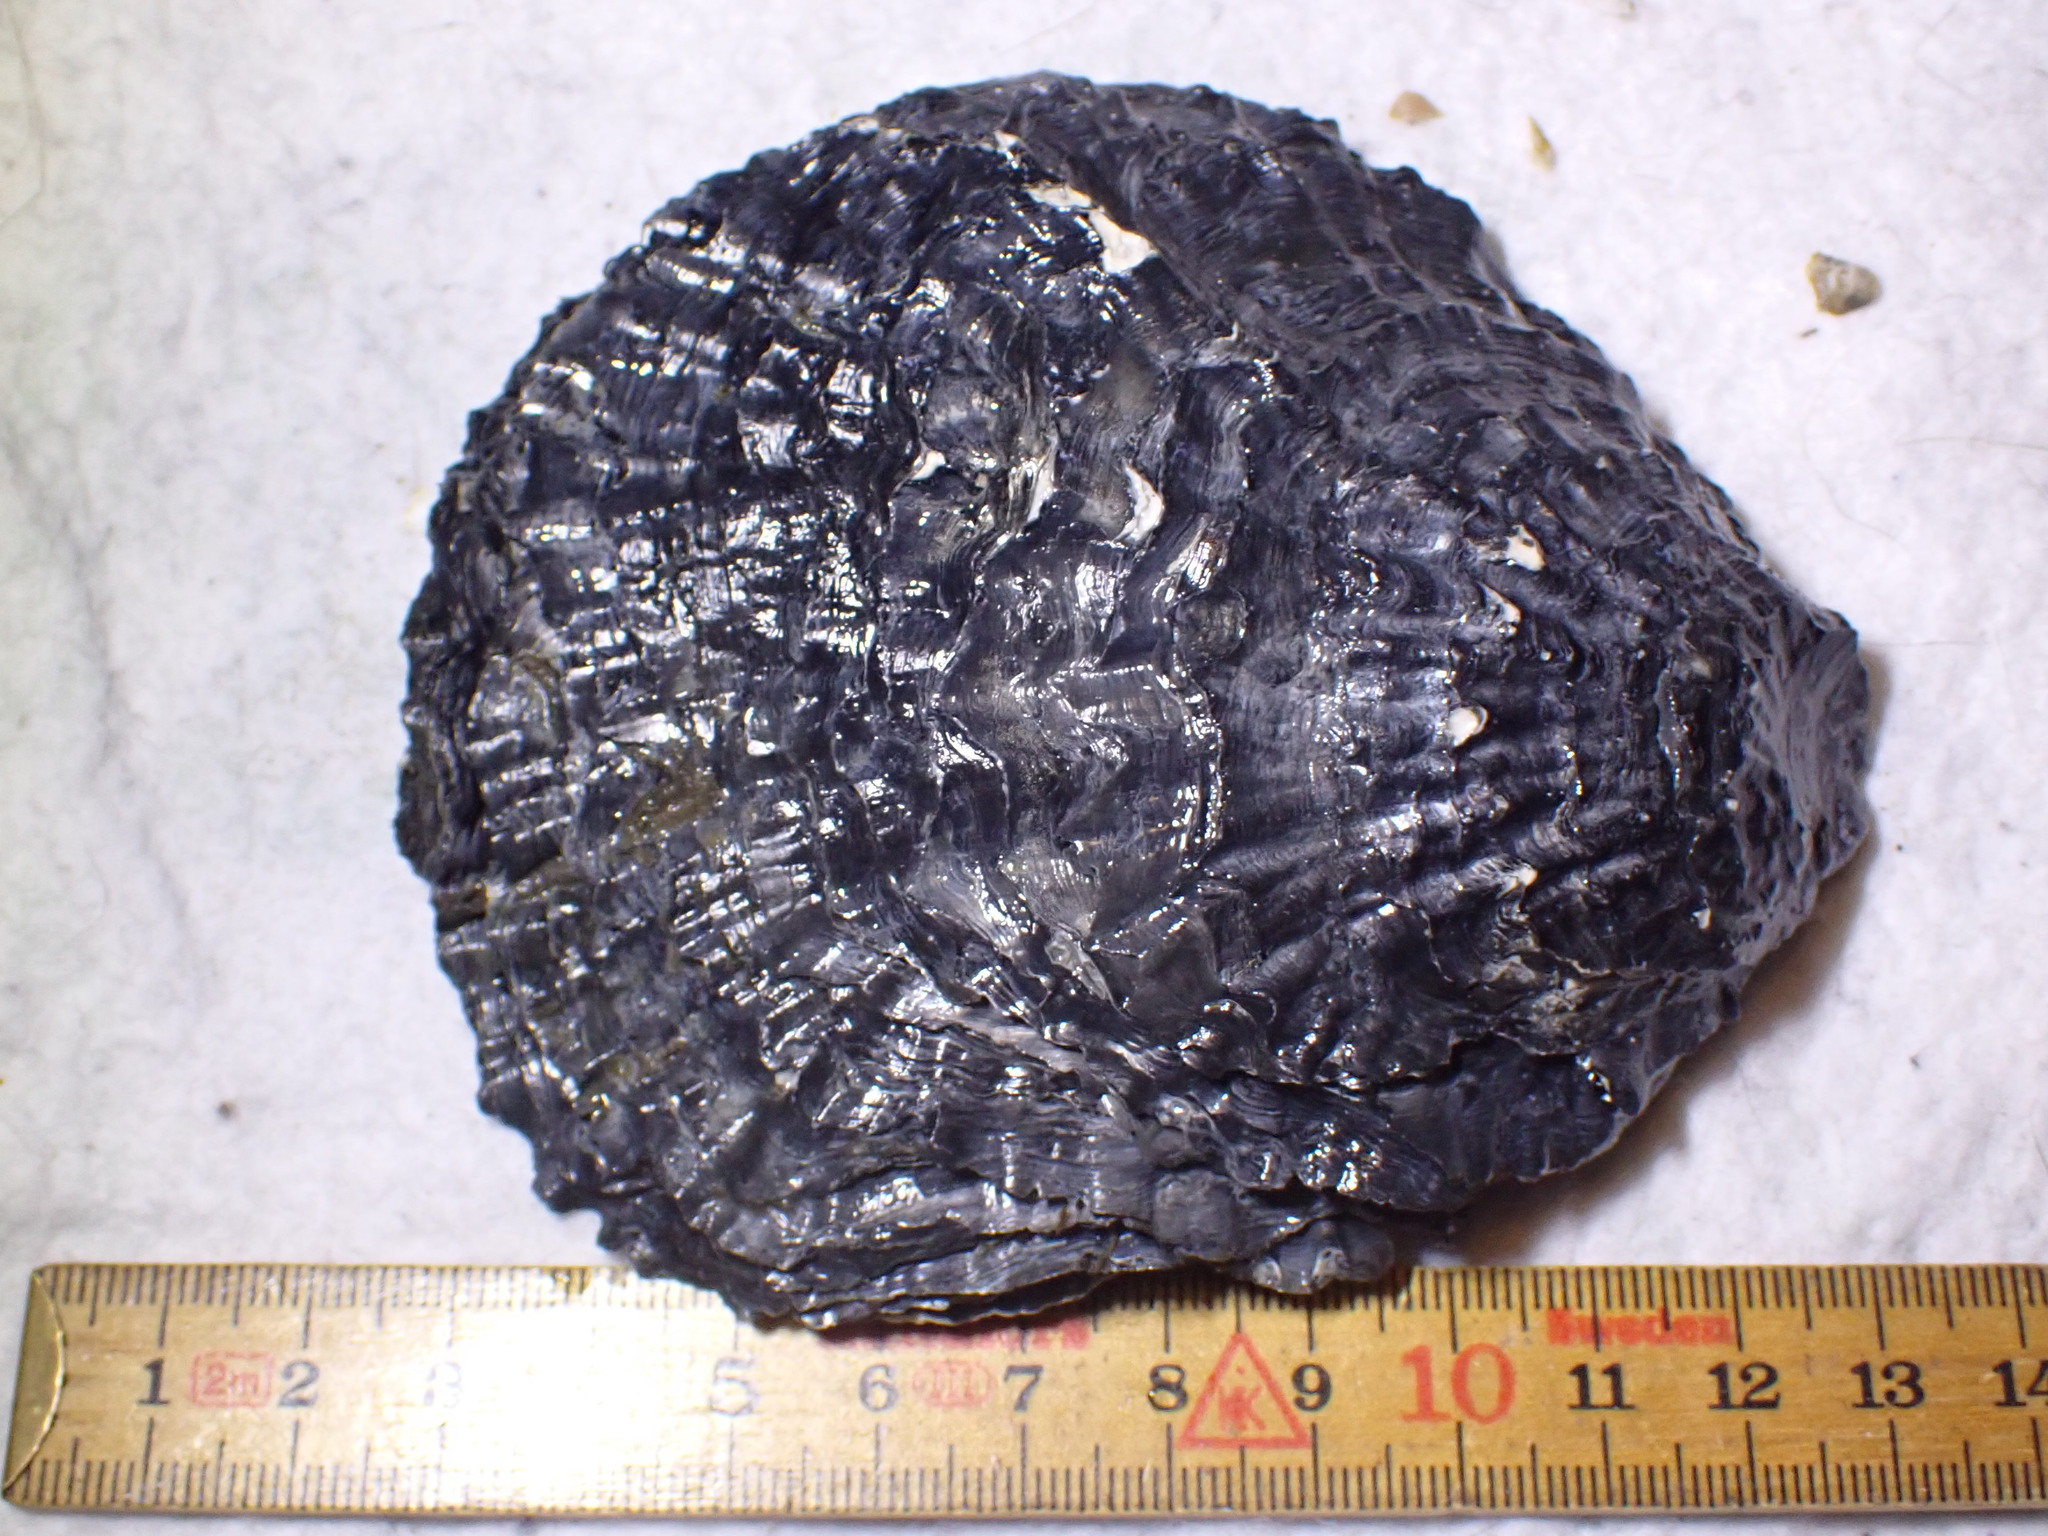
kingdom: Animalia
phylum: Mollusca
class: Bivalvia
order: Ostreida
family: Ostreidae
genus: Ostrea
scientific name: Ostrea edulis
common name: Flat oyster
